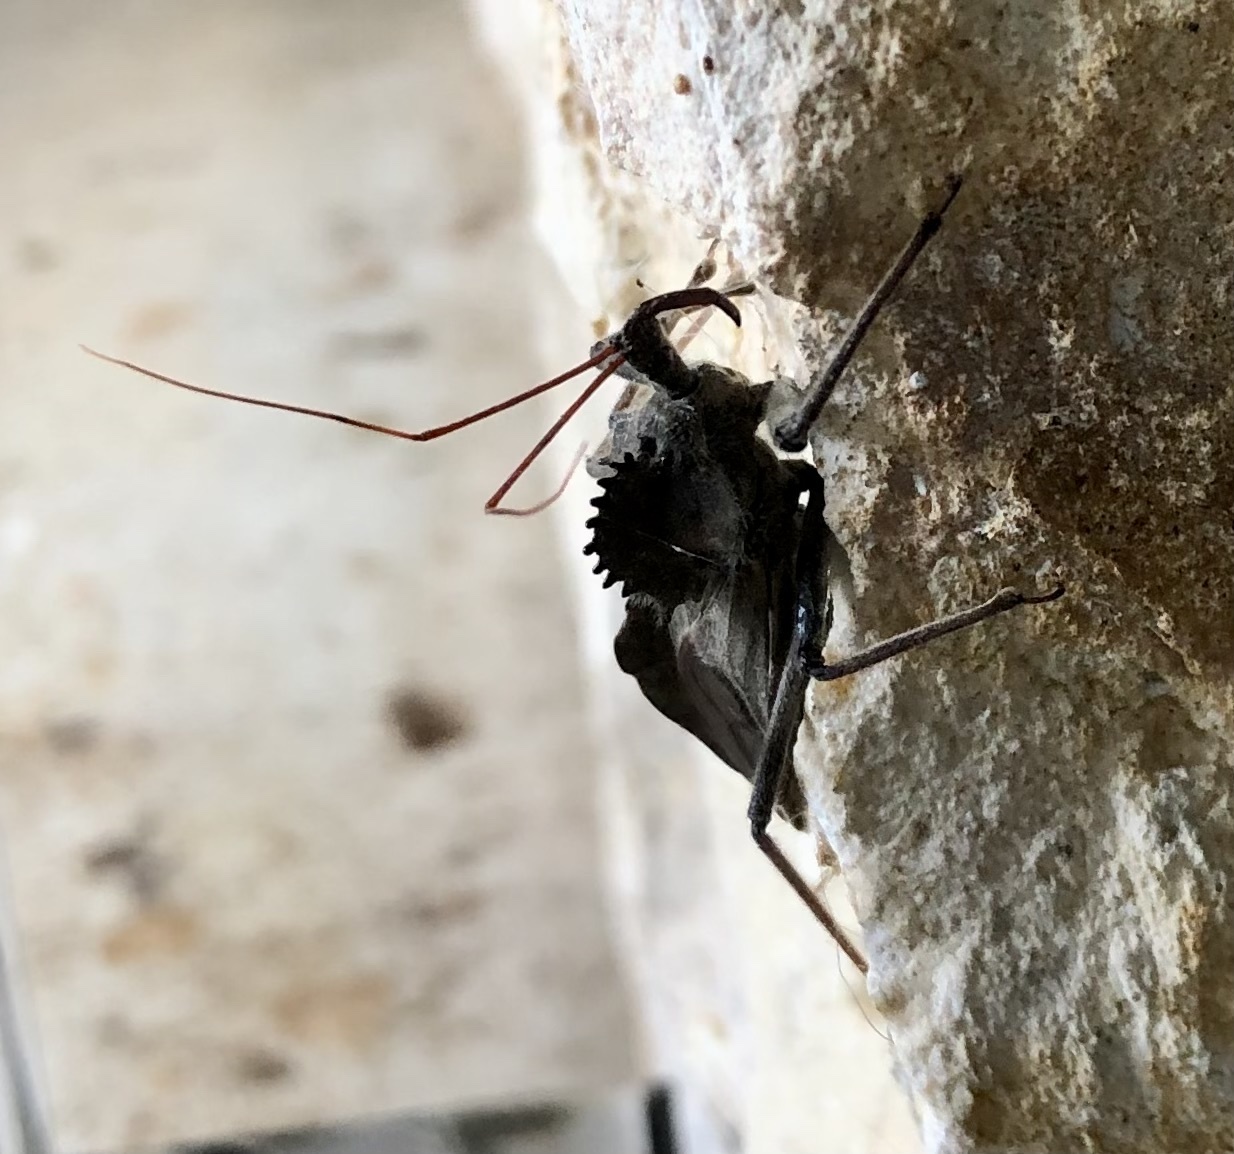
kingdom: Animalia
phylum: Arthropoda
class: Insecta
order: Hemiptera
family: Reduviidae
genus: Arilus
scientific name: Arilus cristatus
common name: North american wheel bug
